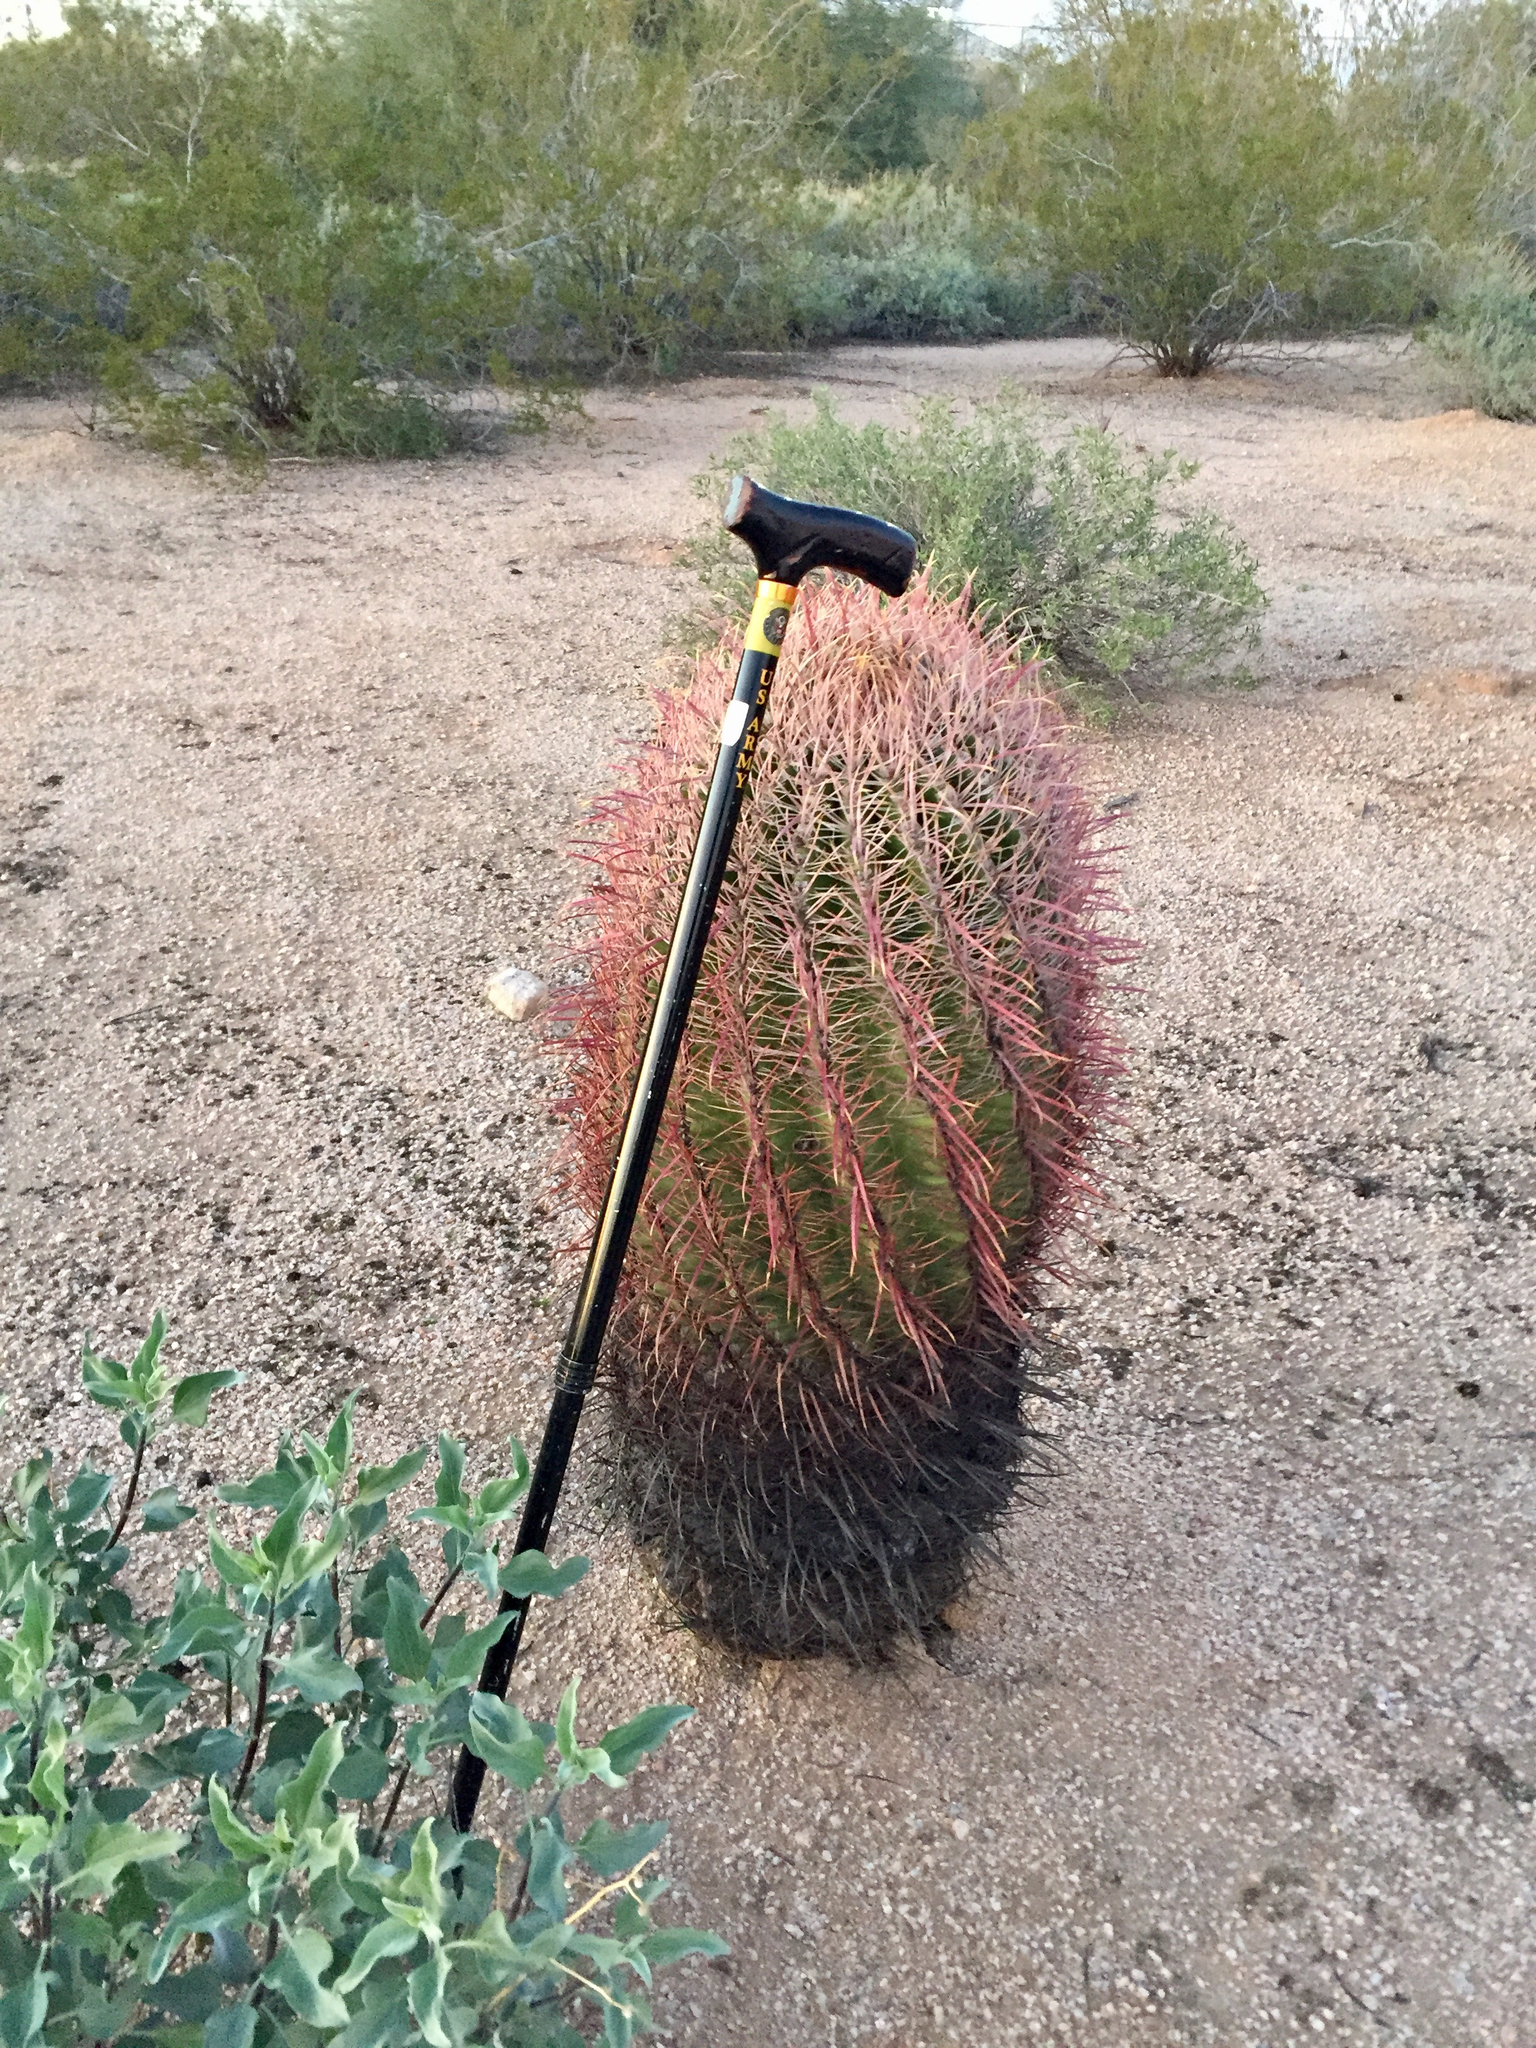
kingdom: Plantae
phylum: Tracheophyta
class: Magnoliopsida
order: Caryophyllales
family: Cactaceae
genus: Ferocactus
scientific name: Ferocactus cylindraceus
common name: California barrel cactus
